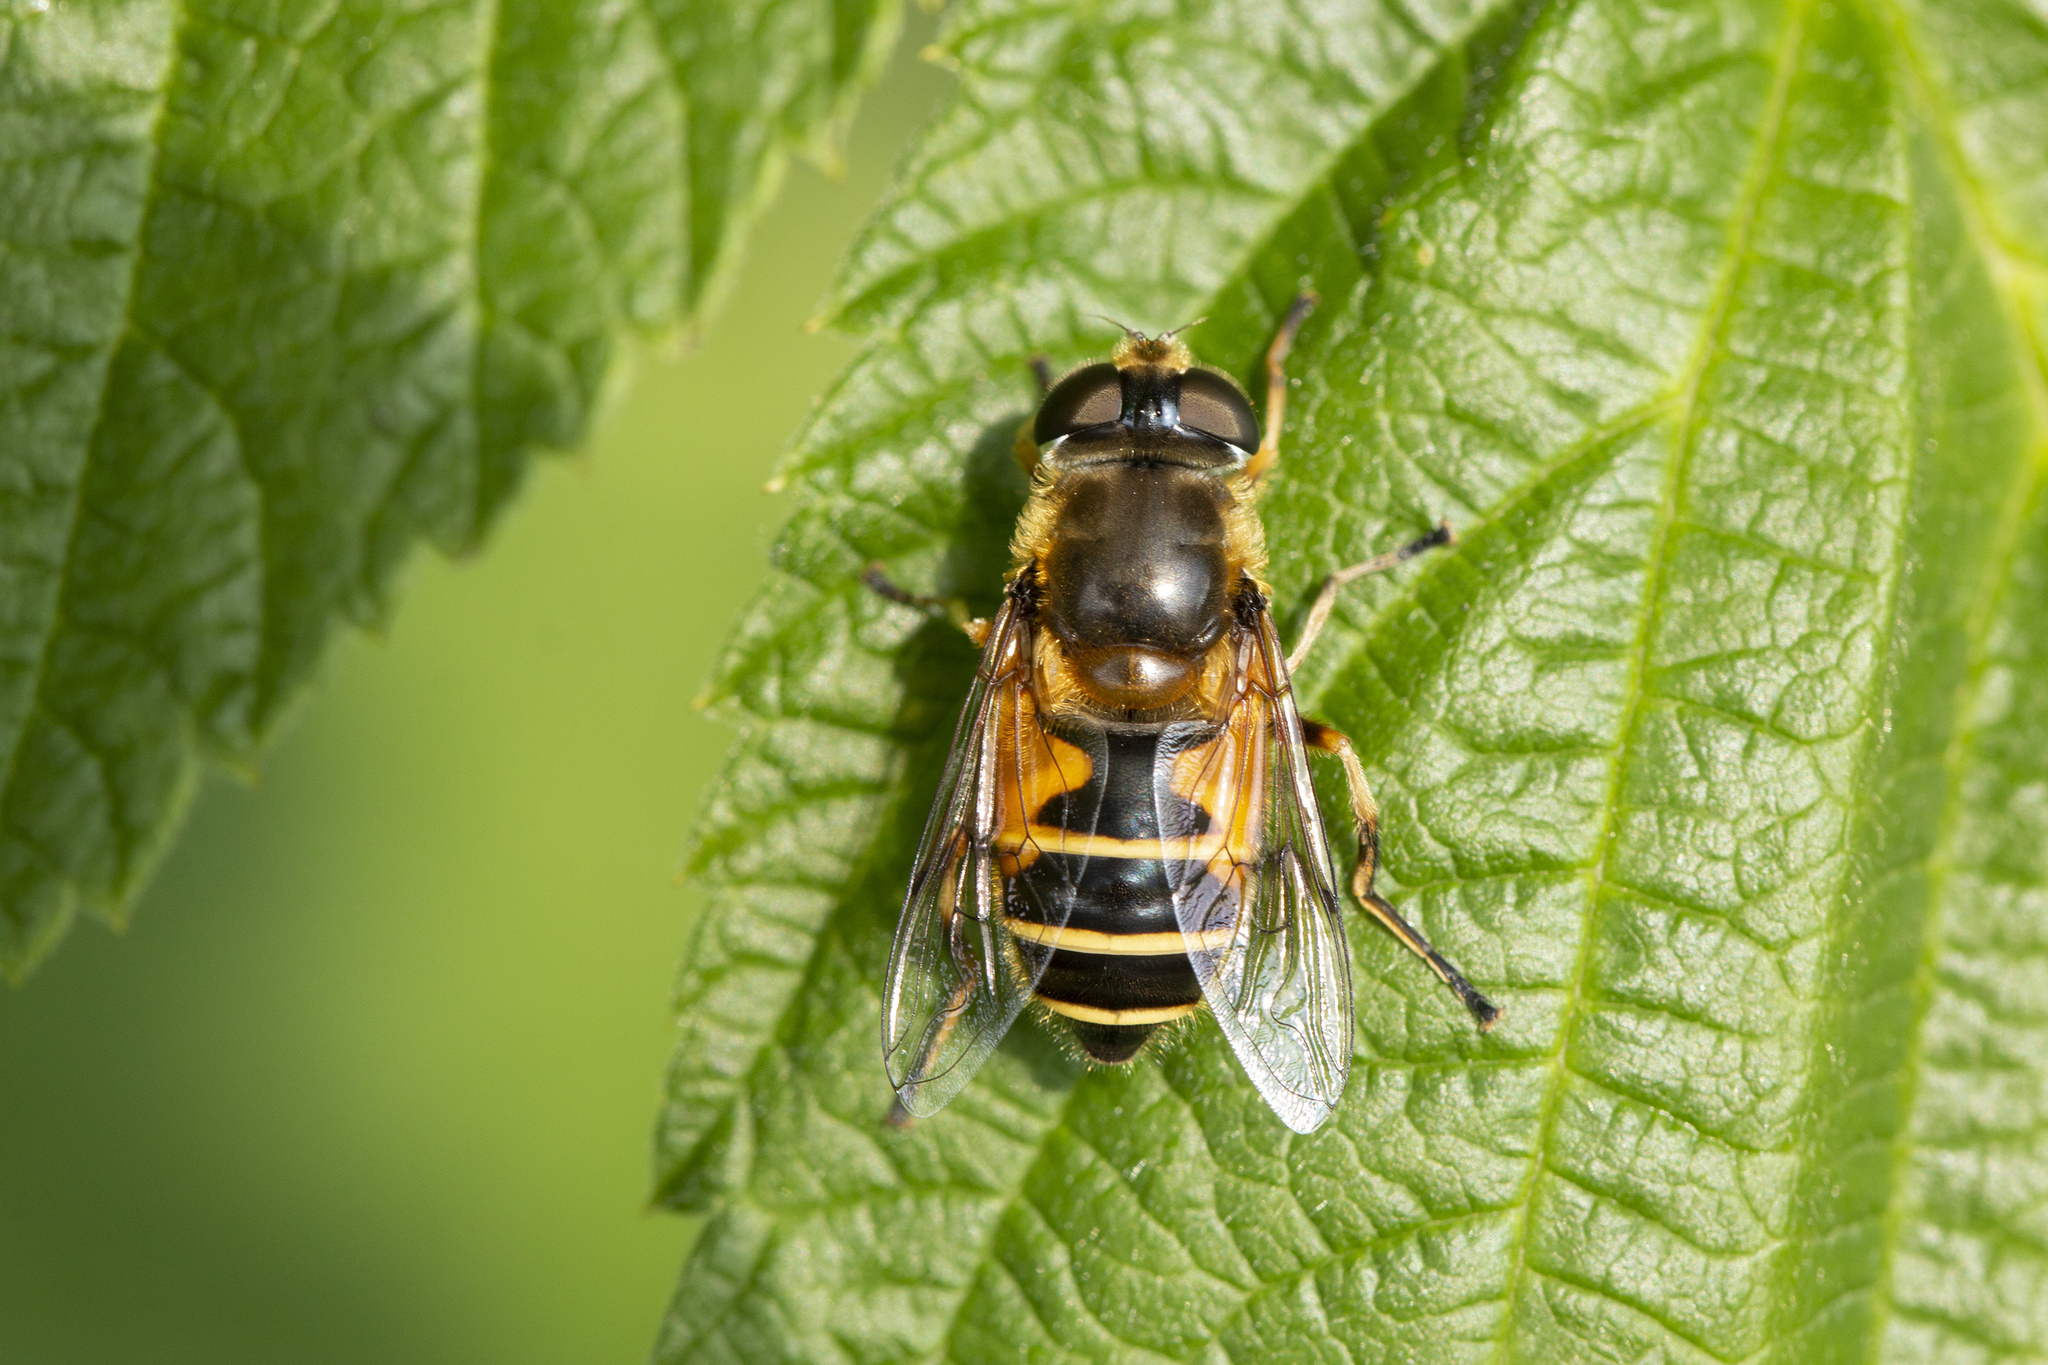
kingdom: Animalia
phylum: Arthropoda
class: Insecta
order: Diptera
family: Syrphidae
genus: Cheilosia
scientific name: Cheilosia morio
